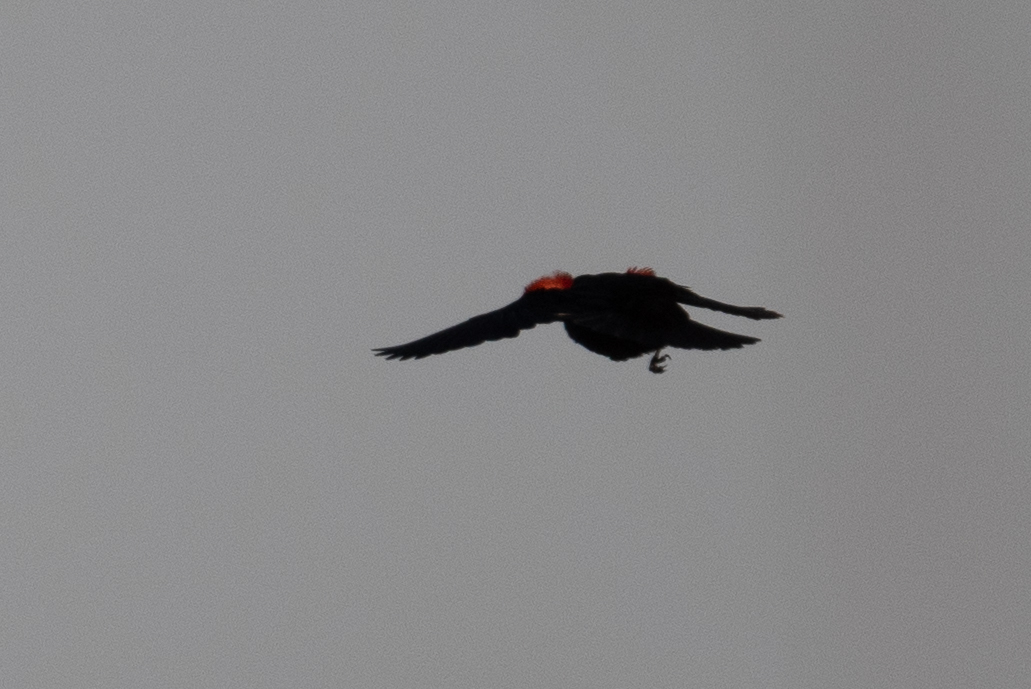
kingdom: Animalia
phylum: Chordata
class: Aves
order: Passeriformes
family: Icteridae
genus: Agelaius
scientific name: Agelaius phoeniceus
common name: Red-winged blackbird
